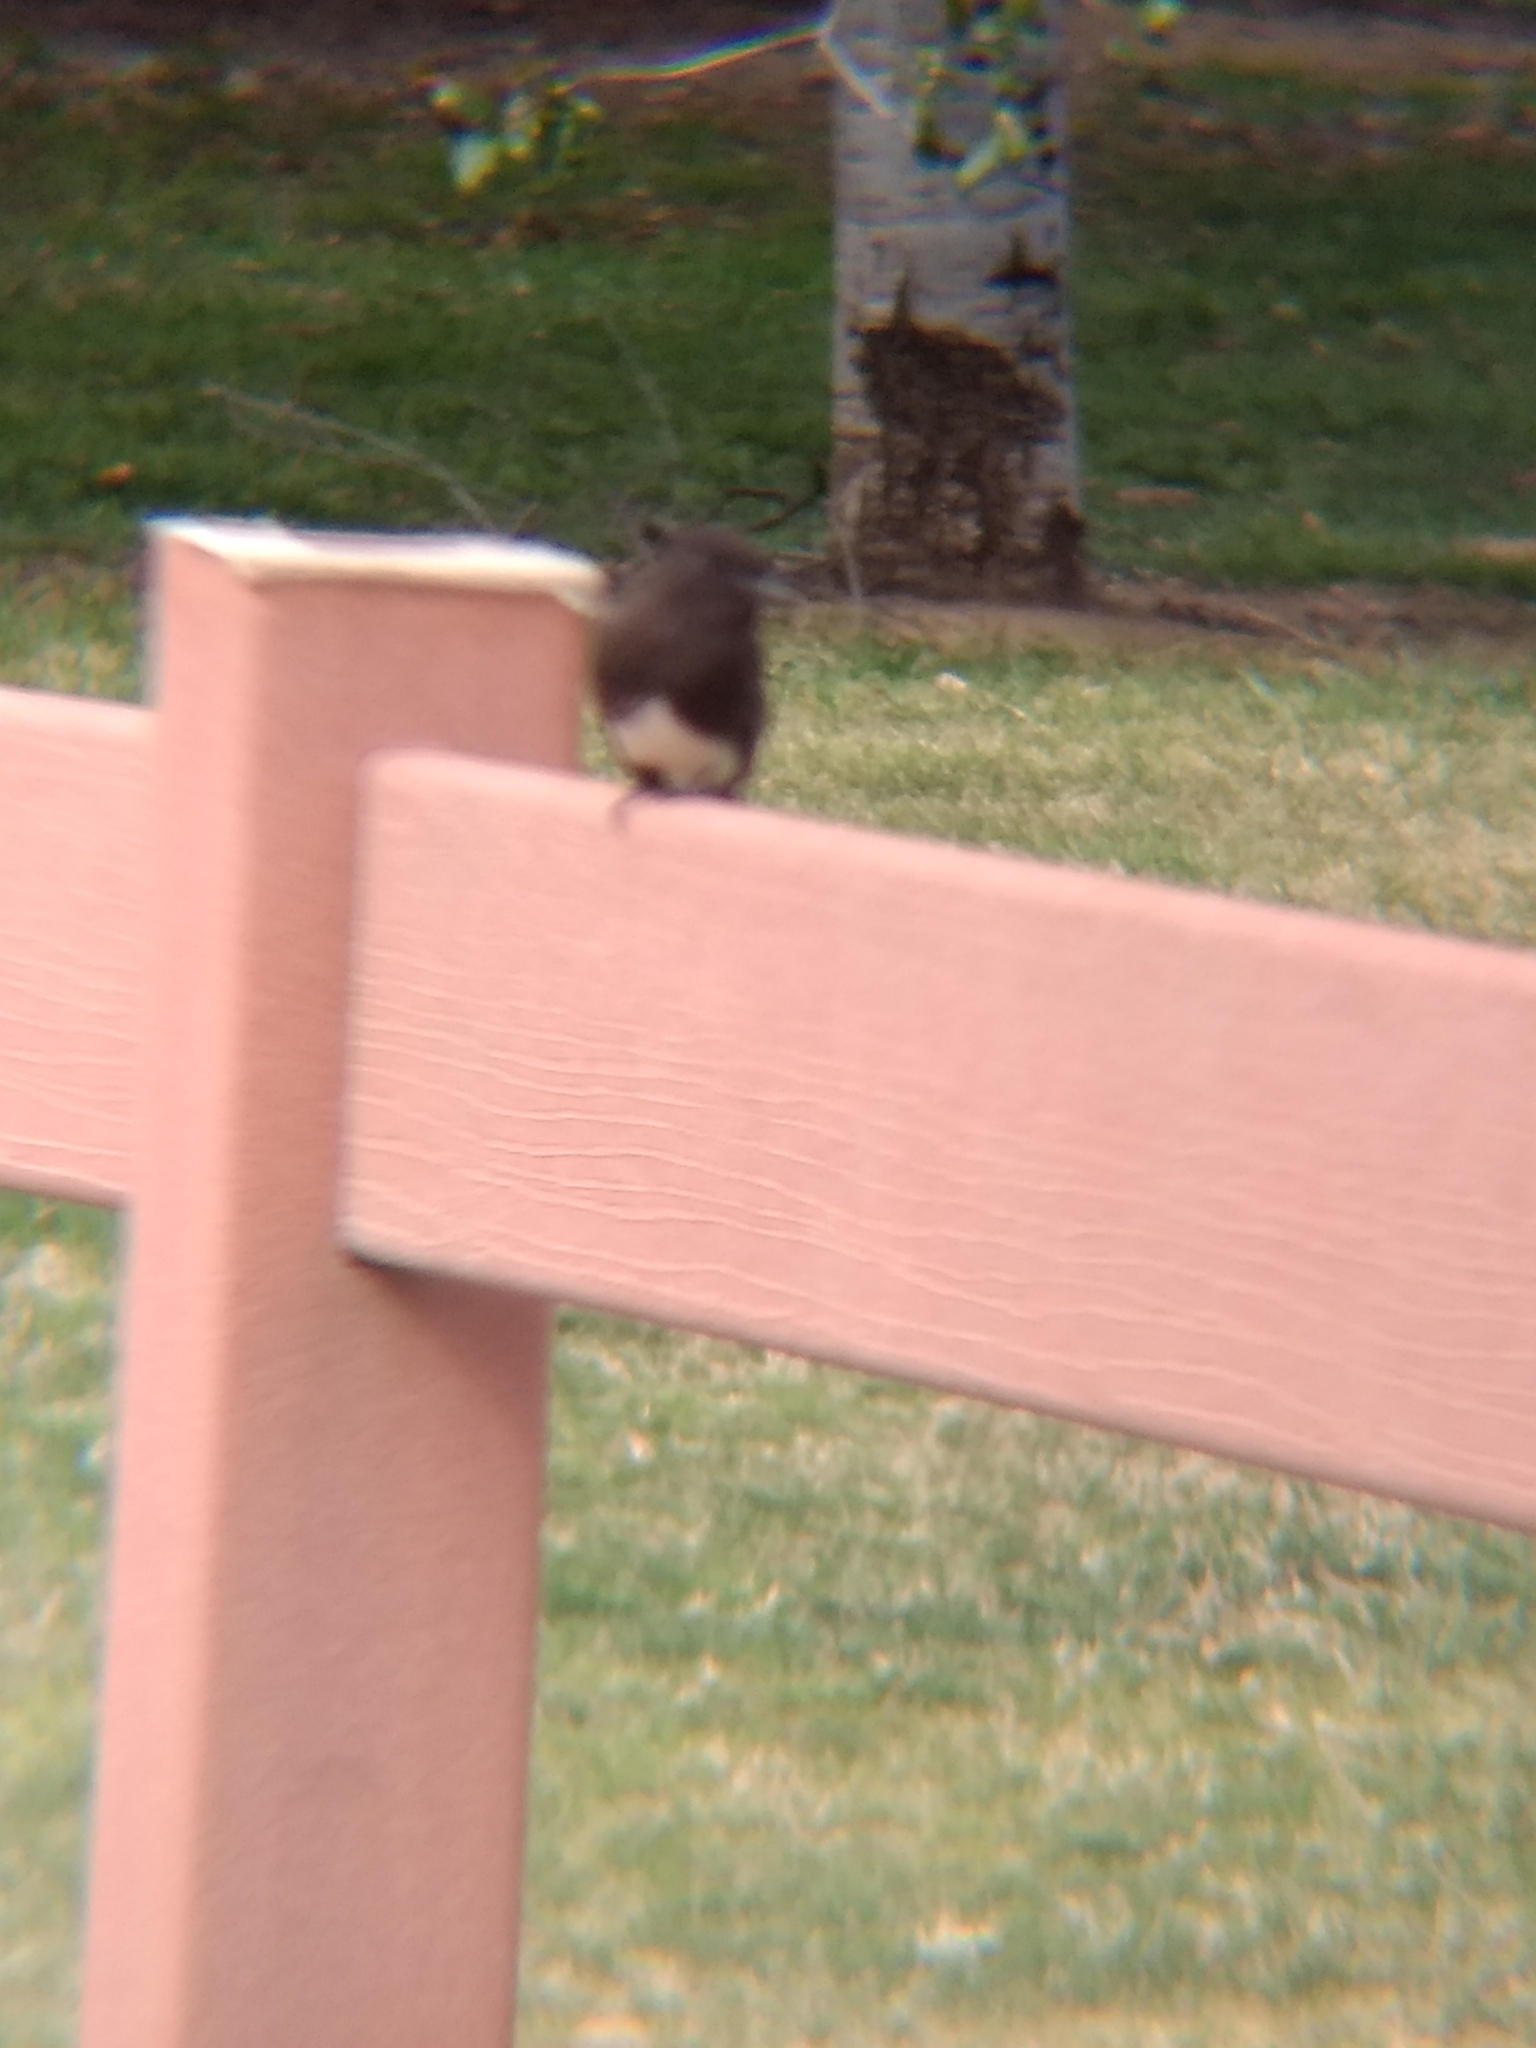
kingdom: Animalia
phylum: Chordata
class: Aves
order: Passeriformes
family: Tyrannidae
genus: Sayornis
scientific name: Sayornis nigricans
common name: Black phoebe
